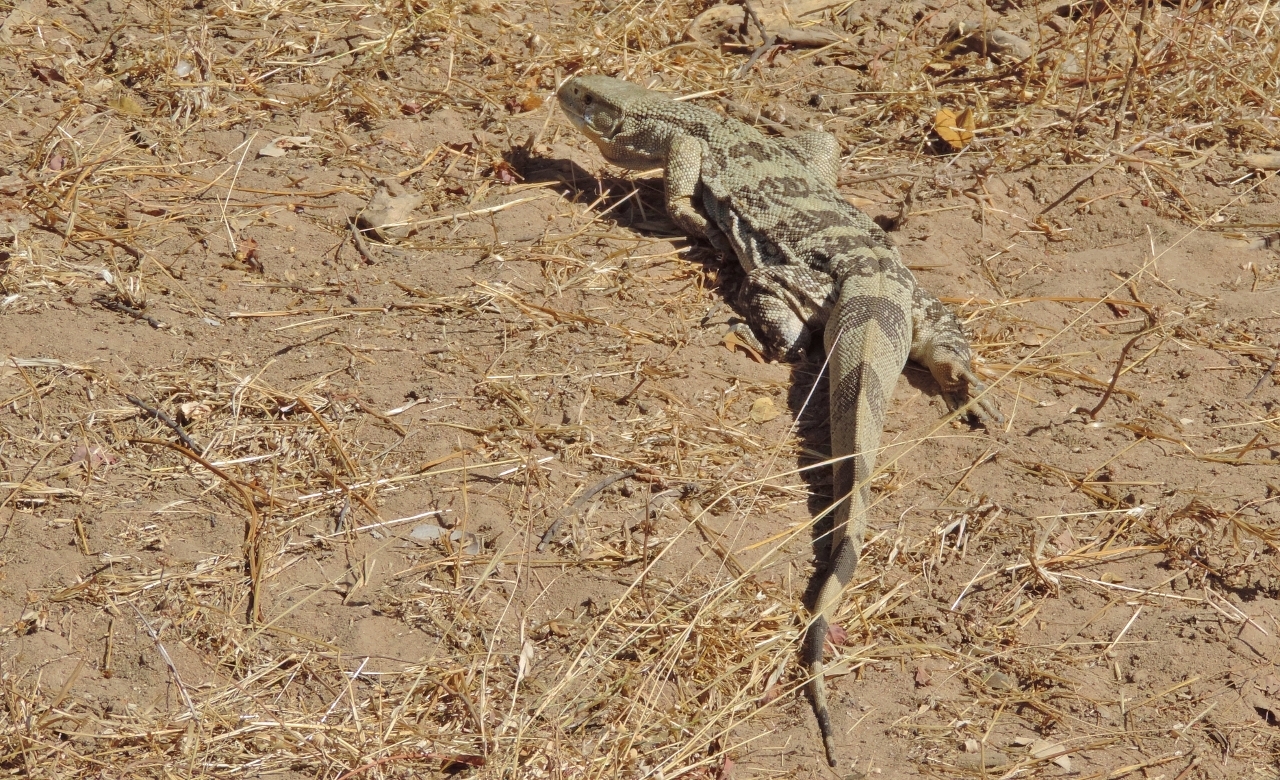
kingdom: Animalia
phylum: Chordata
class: Squamata
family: Varanidae
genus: Varanus
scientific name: Varanus albigularis
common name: White-throated monitor
